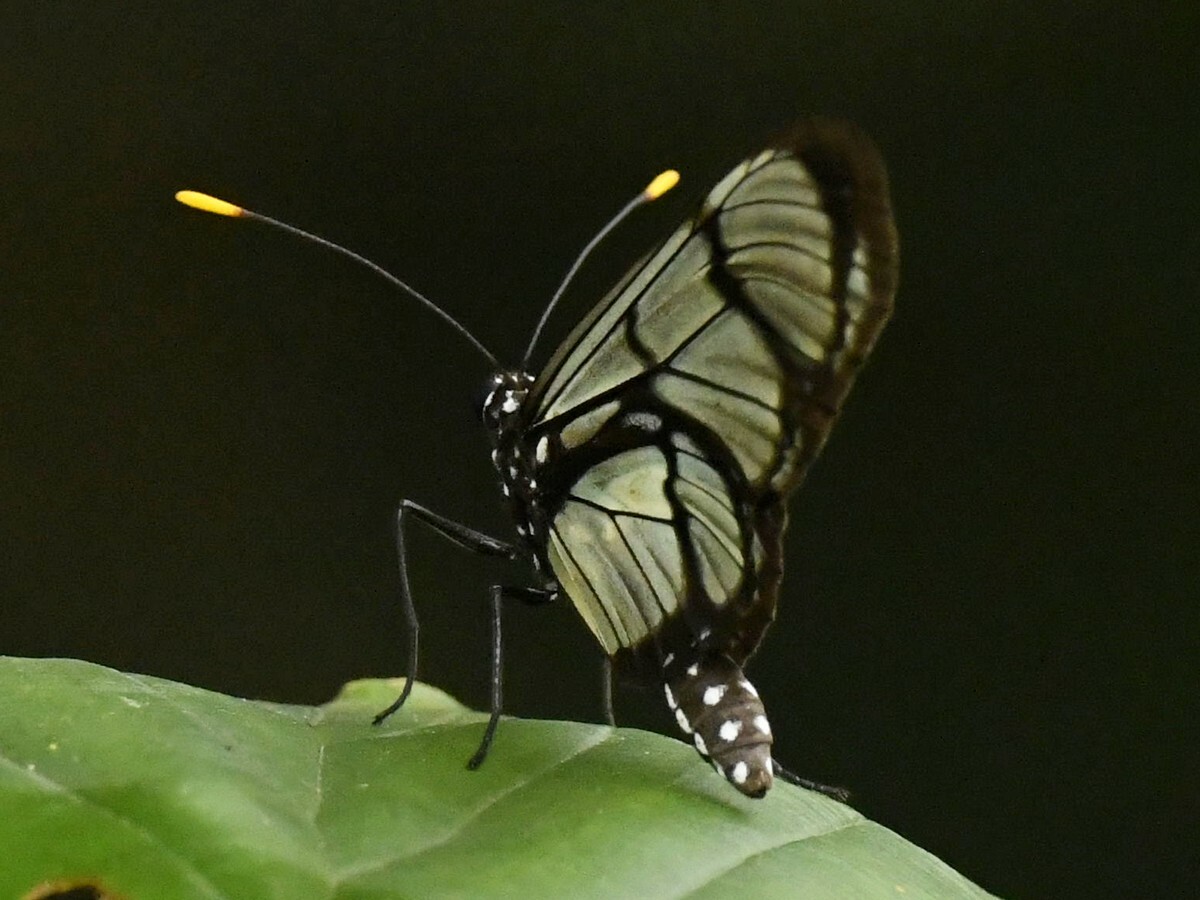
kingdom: Animalia
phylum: Arthropoda
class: Insecta
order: Lepidoptera
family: Nymphalidae
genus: Methona
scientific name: Methona confusa
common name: Confusa tigerwing
